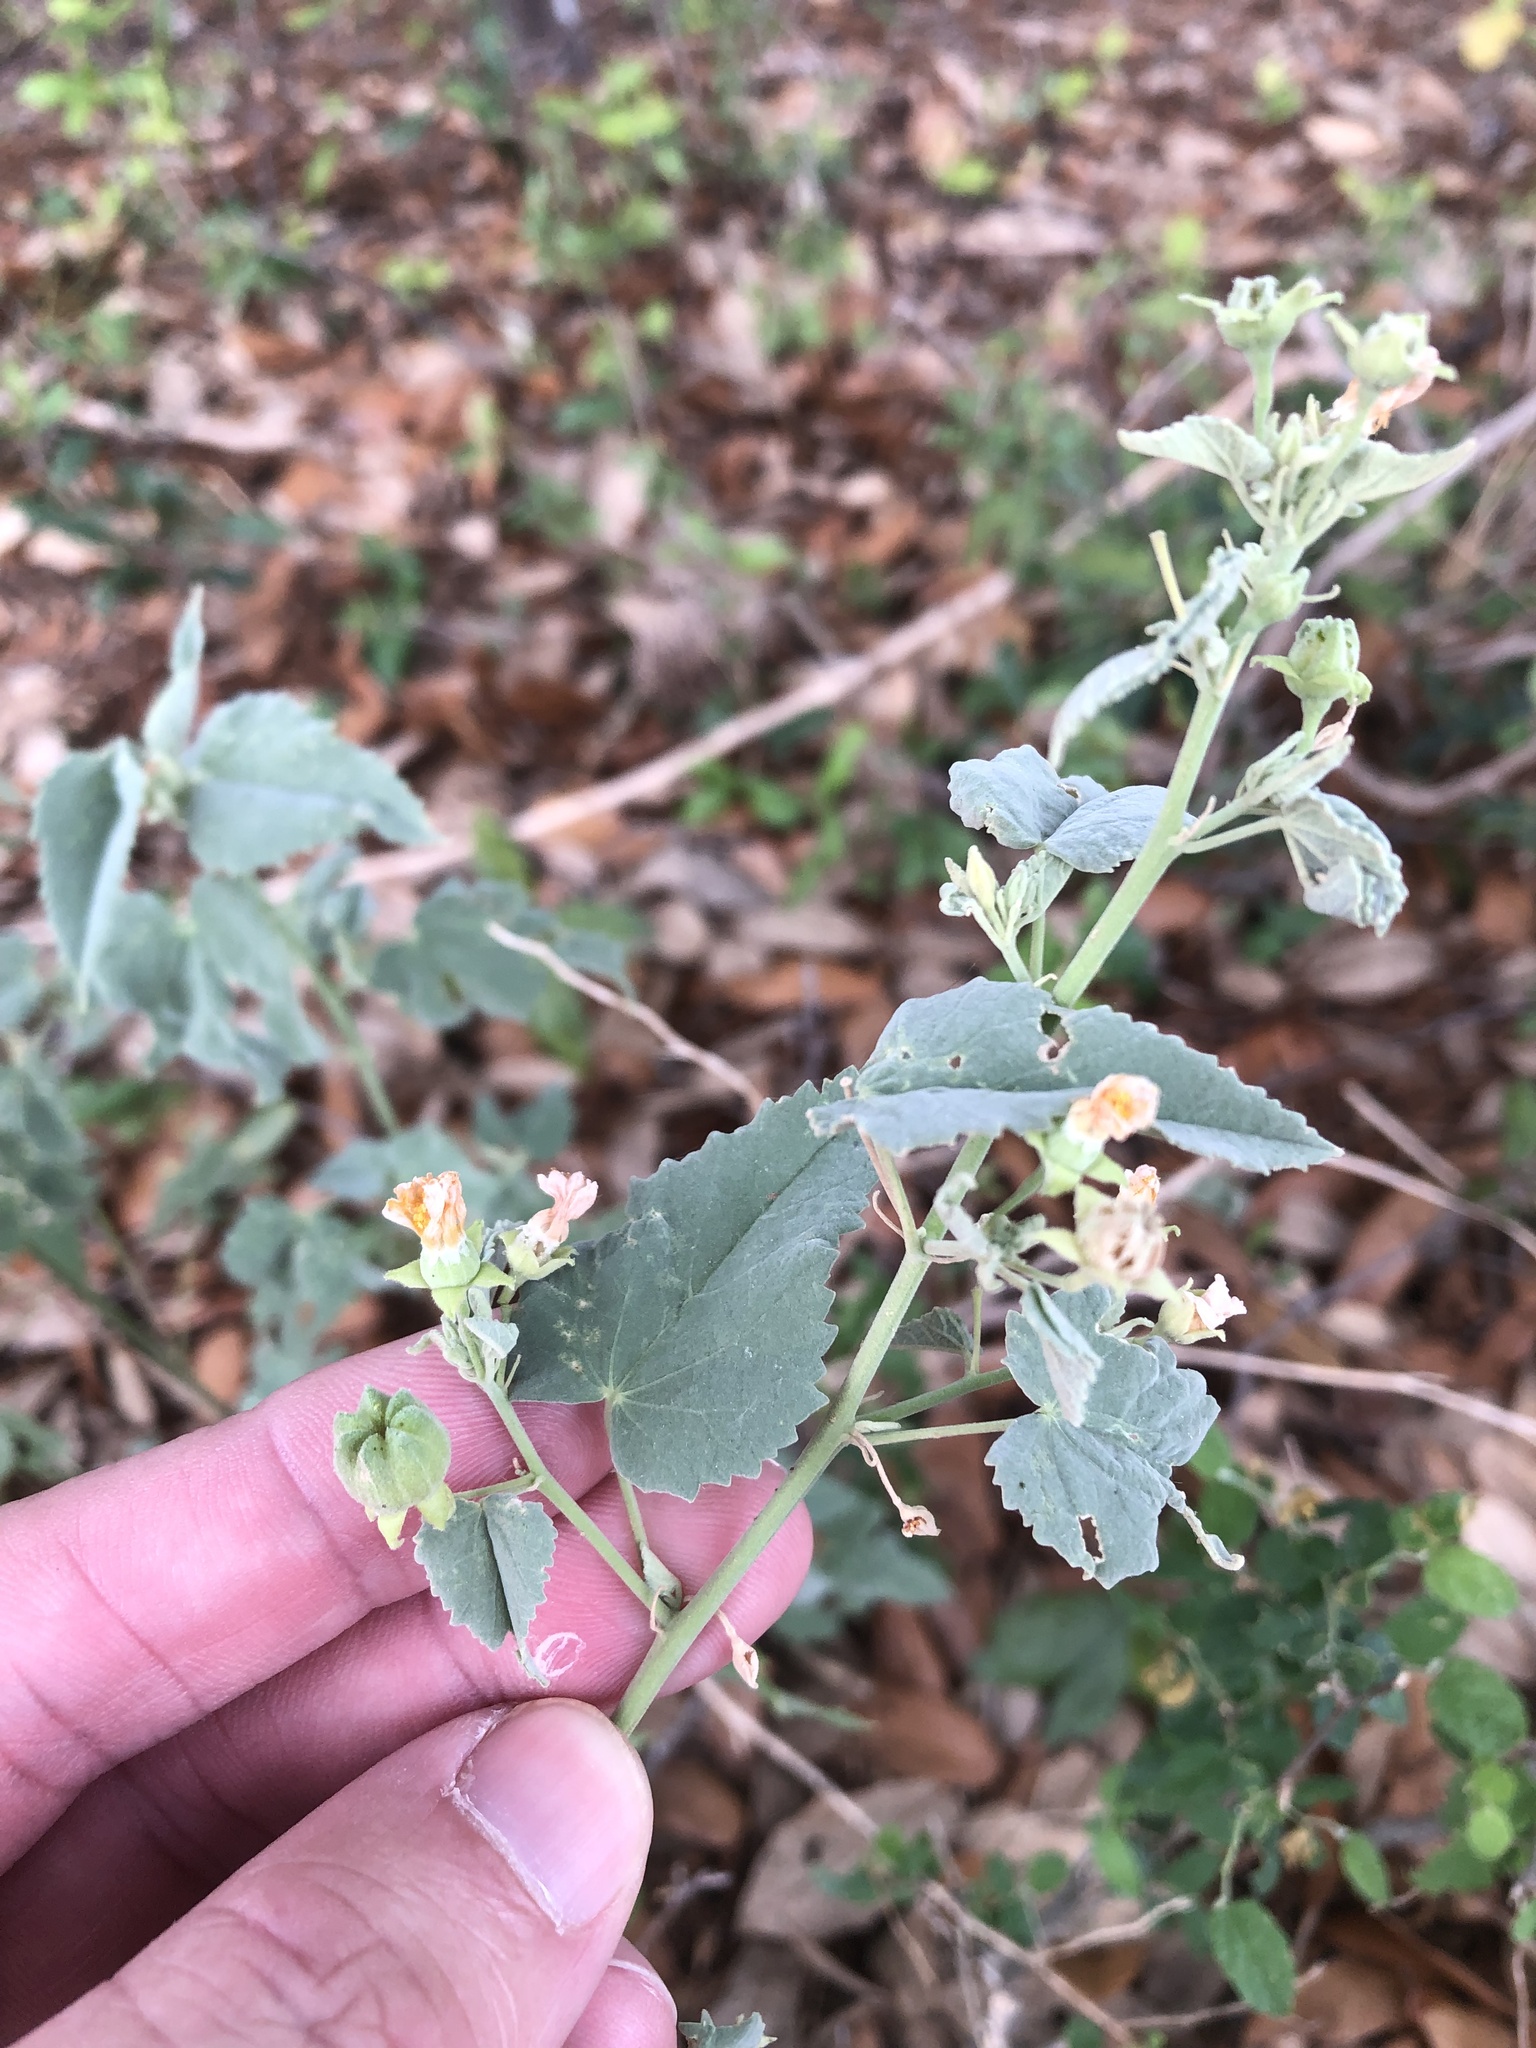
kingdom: Plantae
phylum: Tracheophyta
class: Magnoliopsida
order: Malvales
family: Malvaceae
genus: Abutilon
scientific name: Abutilon fruticosum
